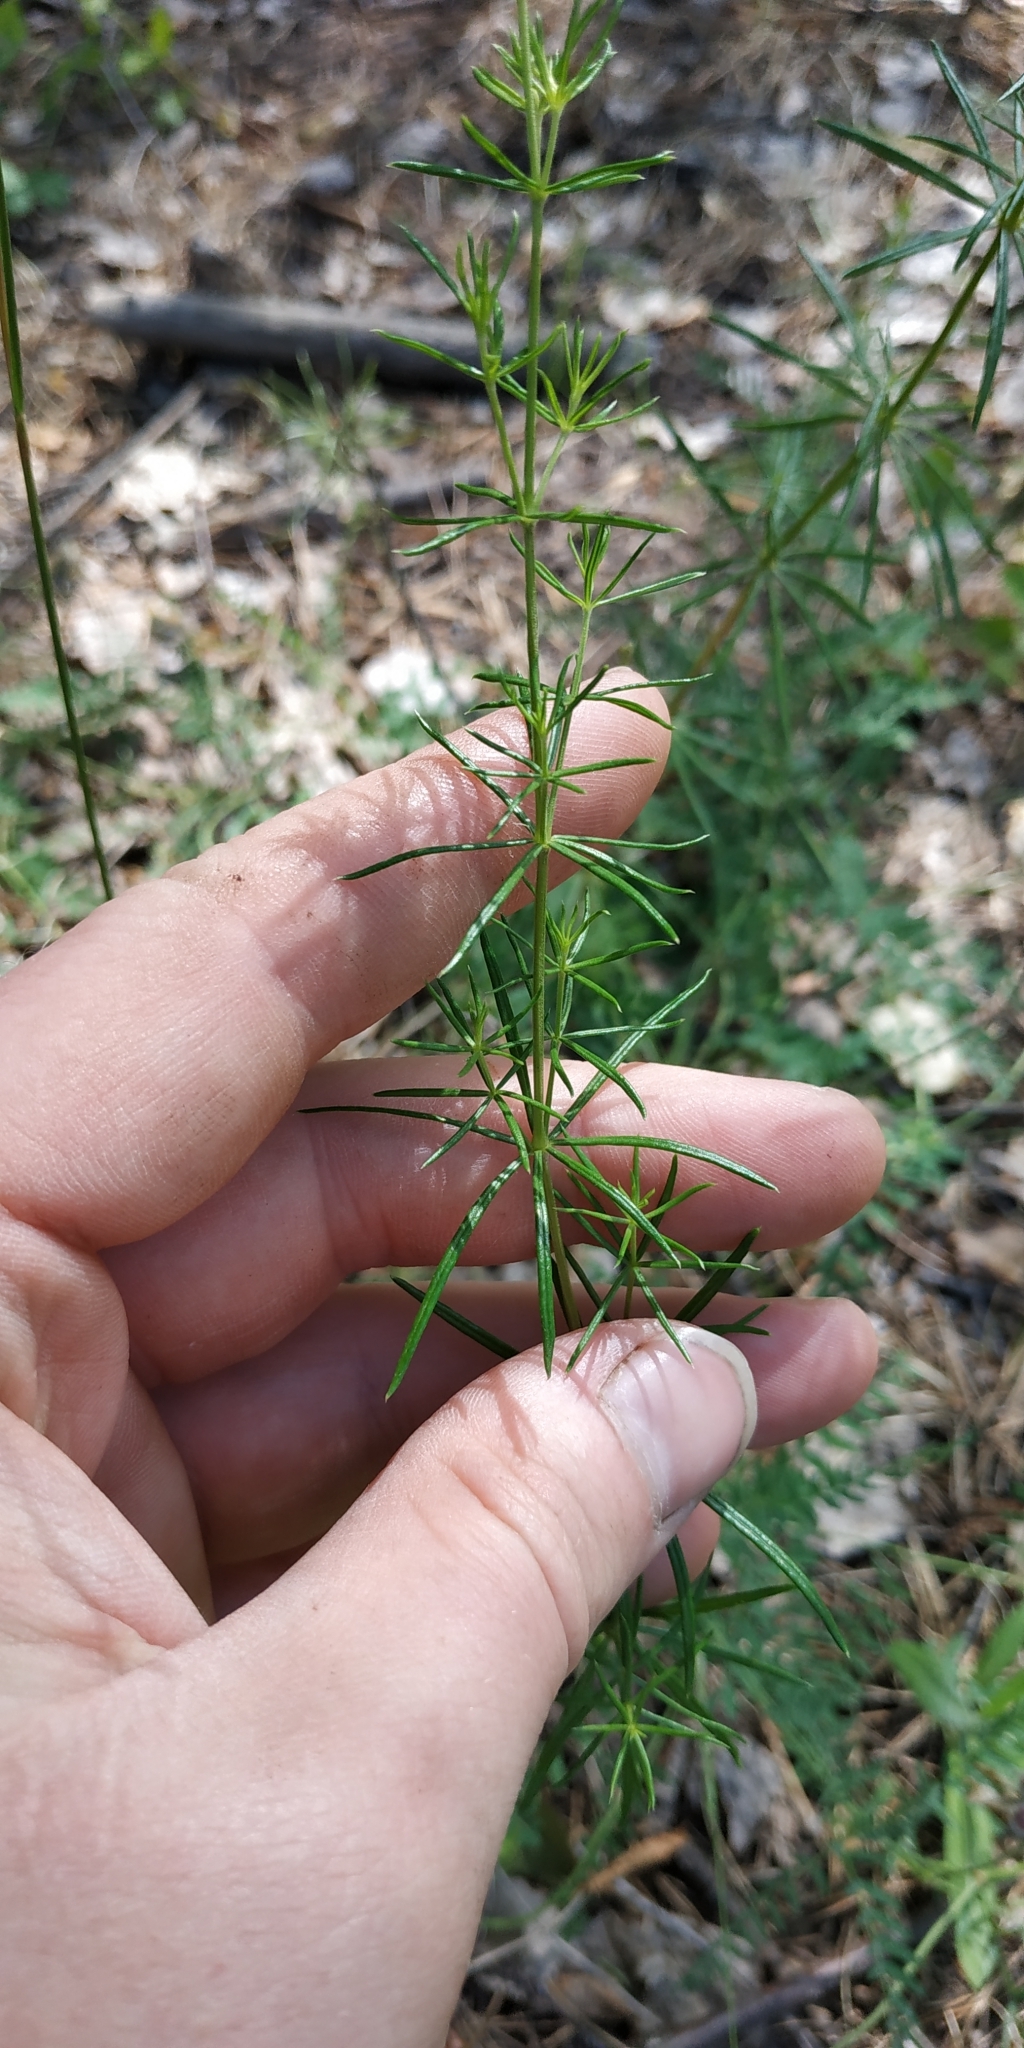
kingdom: Plantae
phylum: Tracheophyta
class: Magnoliopsida
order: Gentianales
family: Rubiaceae
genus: Galium
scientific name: Galium verum
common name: Lady's bedstraw
